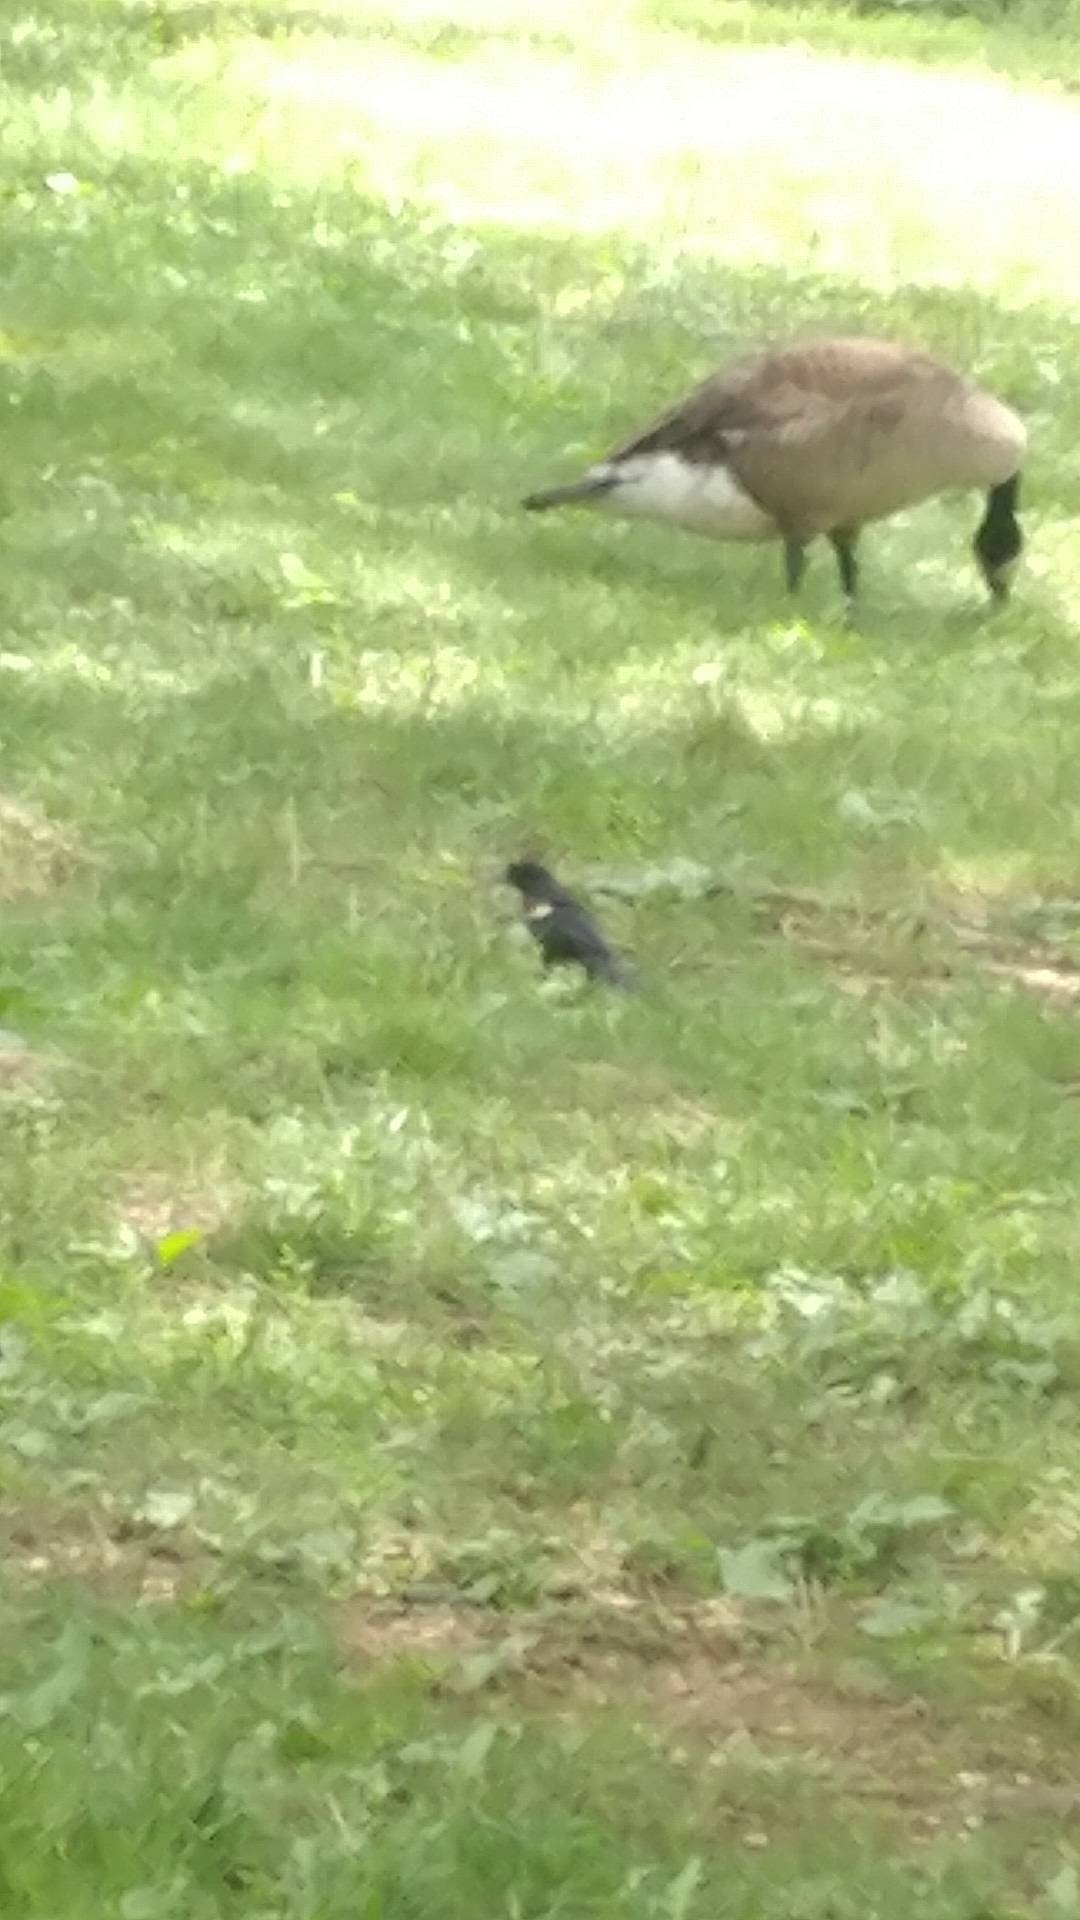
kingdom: Animalia
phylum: Chordata
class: Aves
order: Passeriformes
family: Icteridae
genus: Agelaius
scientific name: Agelaius phoeniceus
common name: Red-winged blackbird
